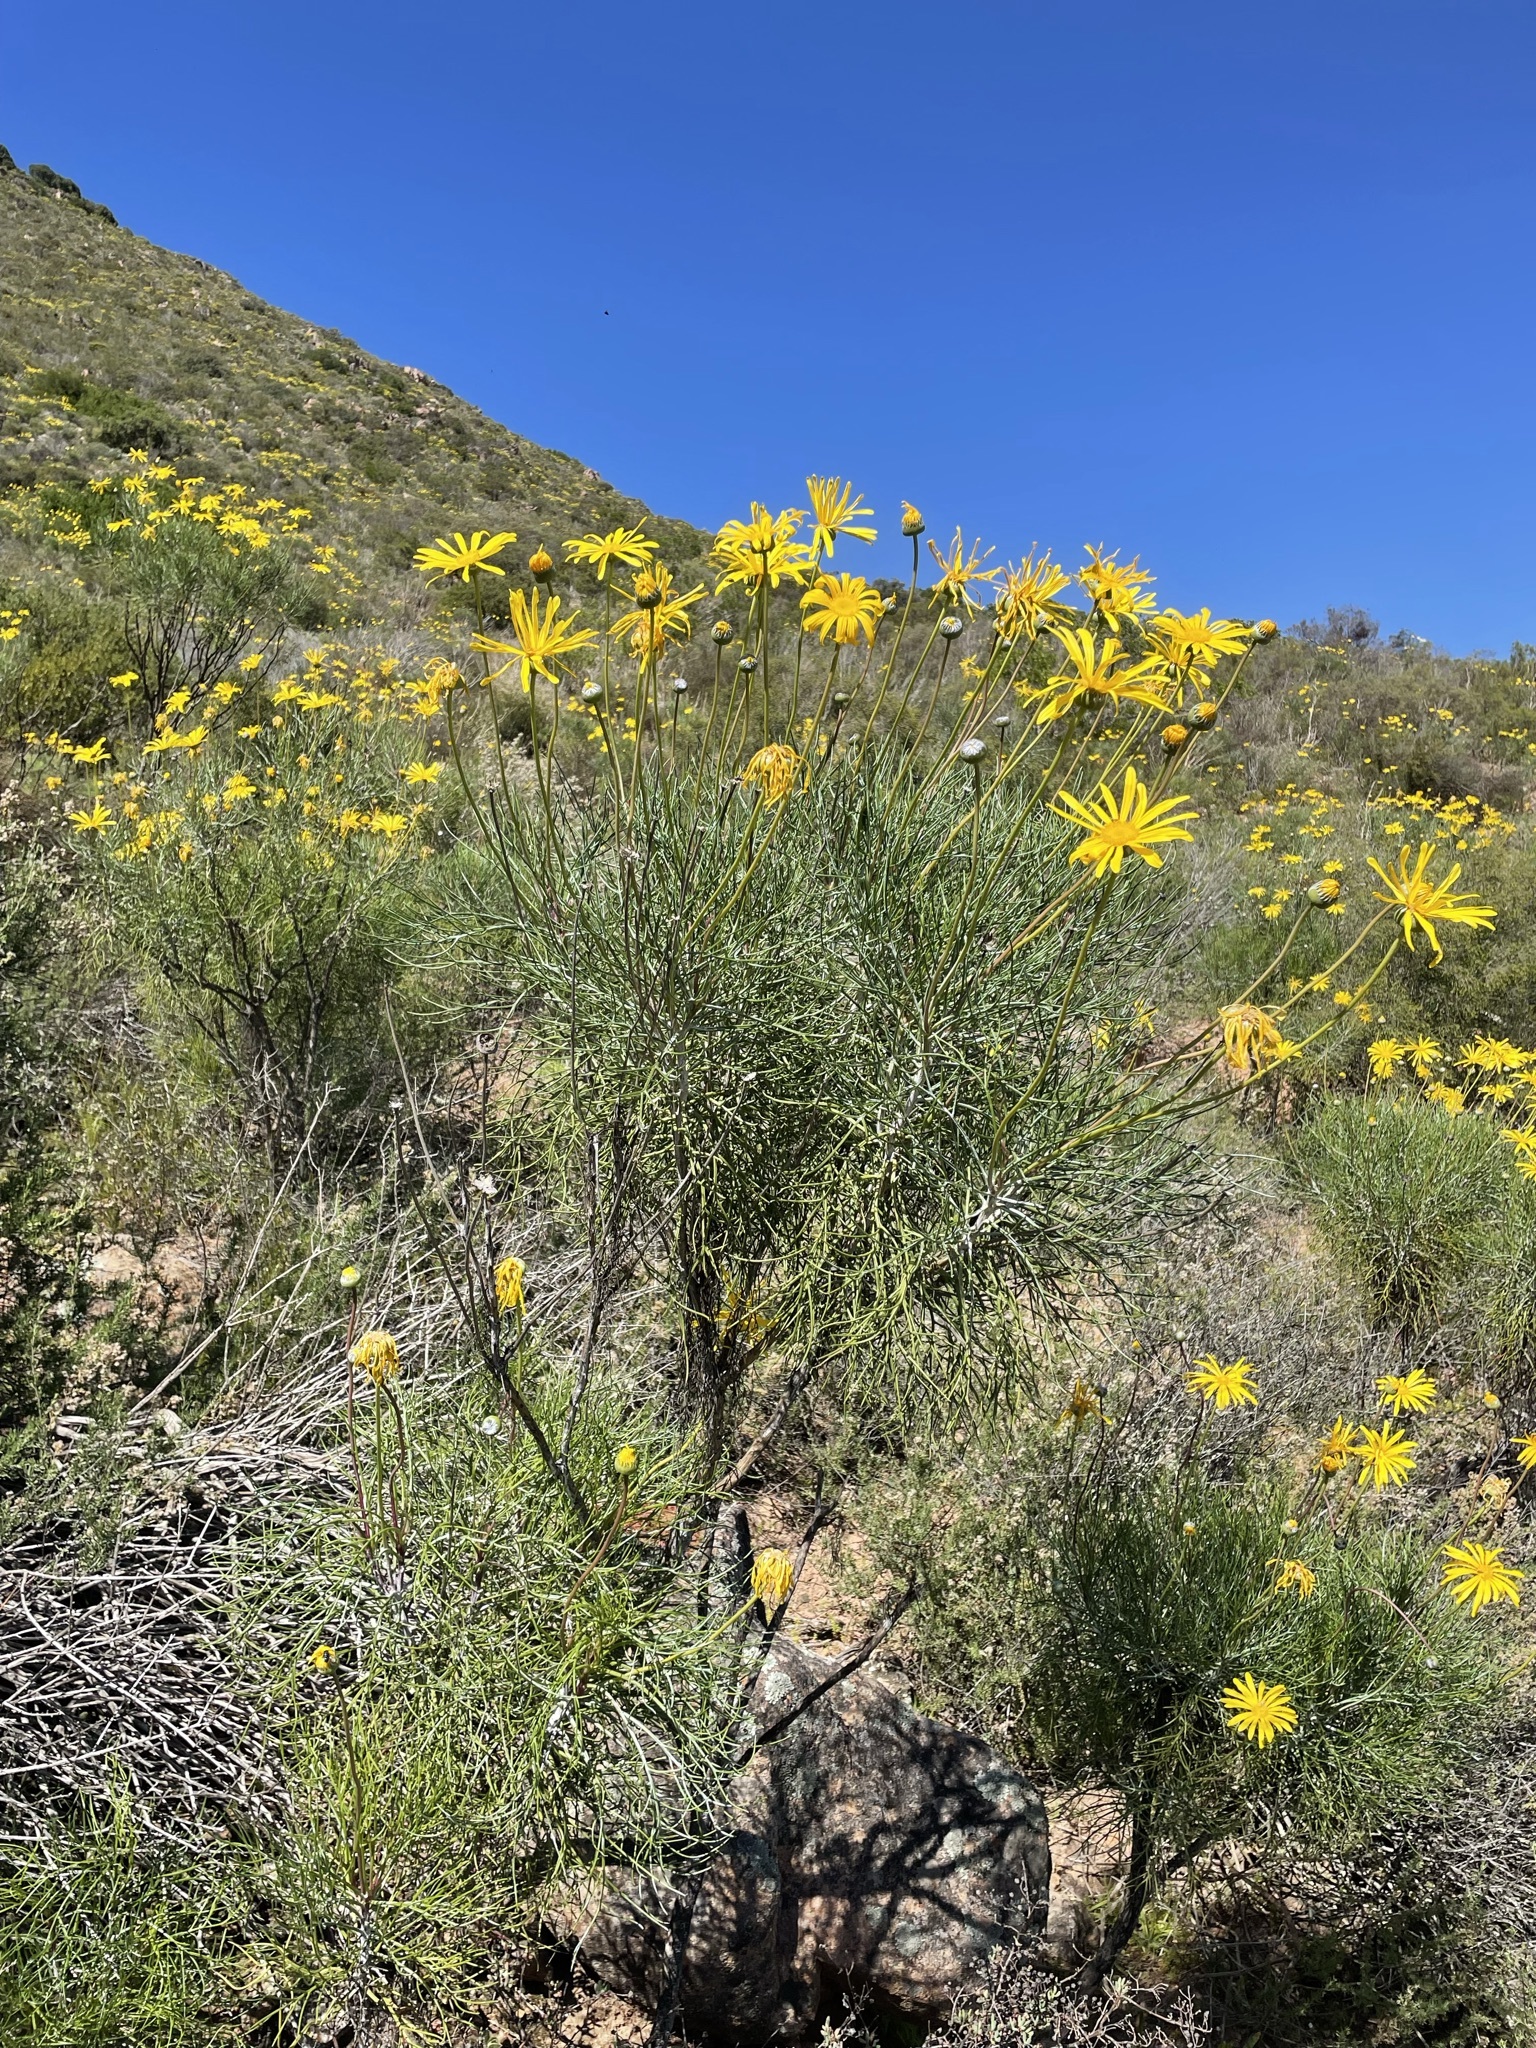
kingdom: Plantae
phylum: Tracheophyta
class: Magnoliopsida
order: Asterales
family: Asteraceae
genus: Euryops
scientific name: Euryops speciosissimus
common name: Clanwilliam daisy
